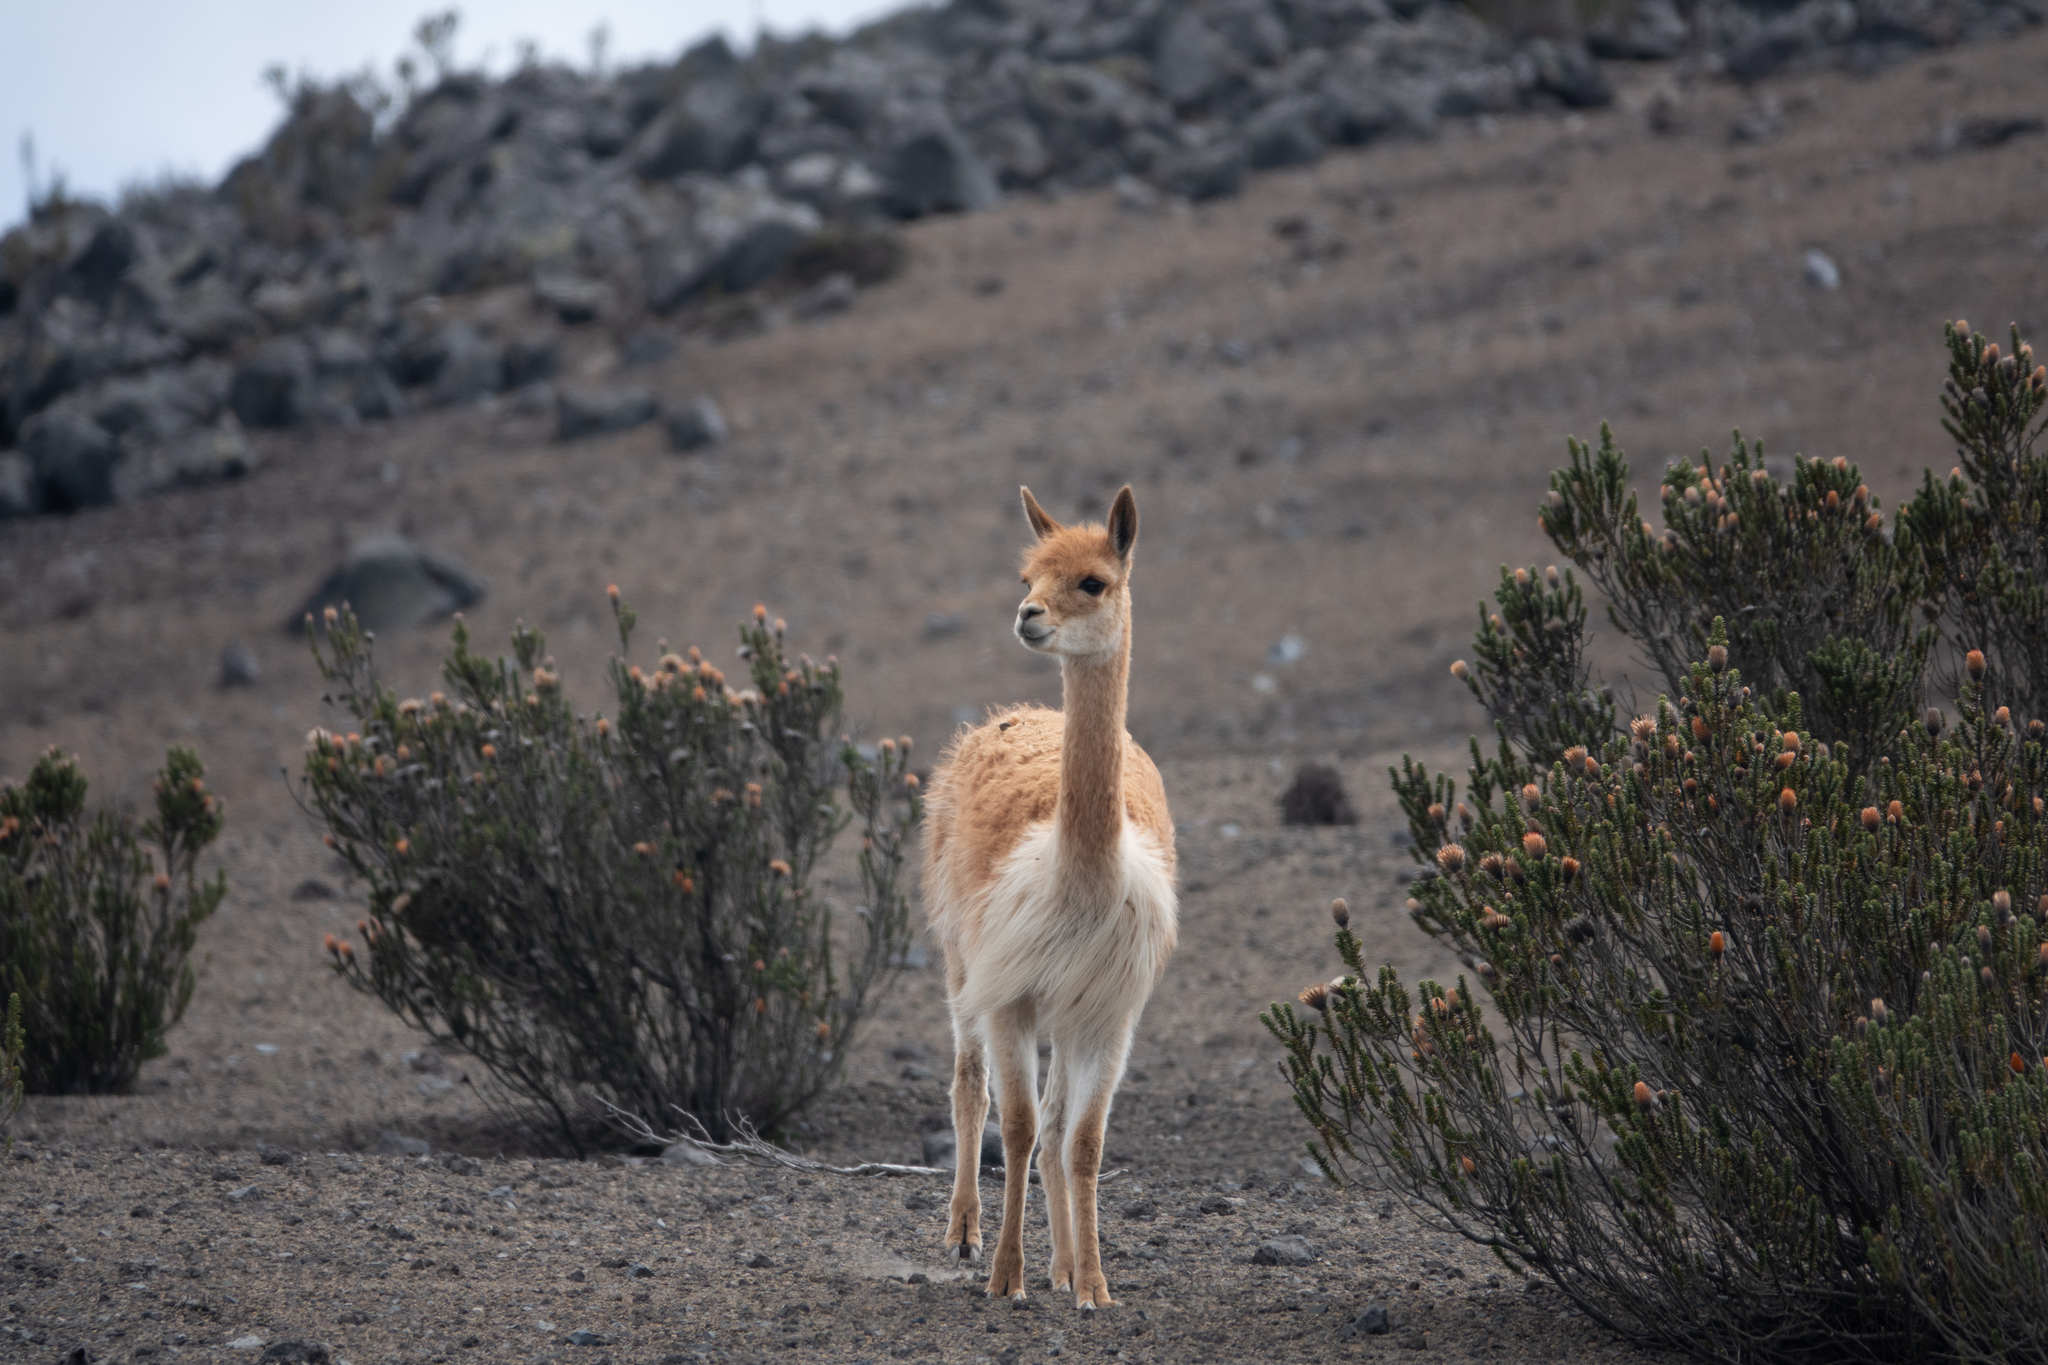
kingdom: Animalia
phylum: Chordata
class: Mammalia
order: Artiodactyla
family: Camelidae
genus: Vicugna
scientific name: Vicugna vicugna
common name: Vicugna
